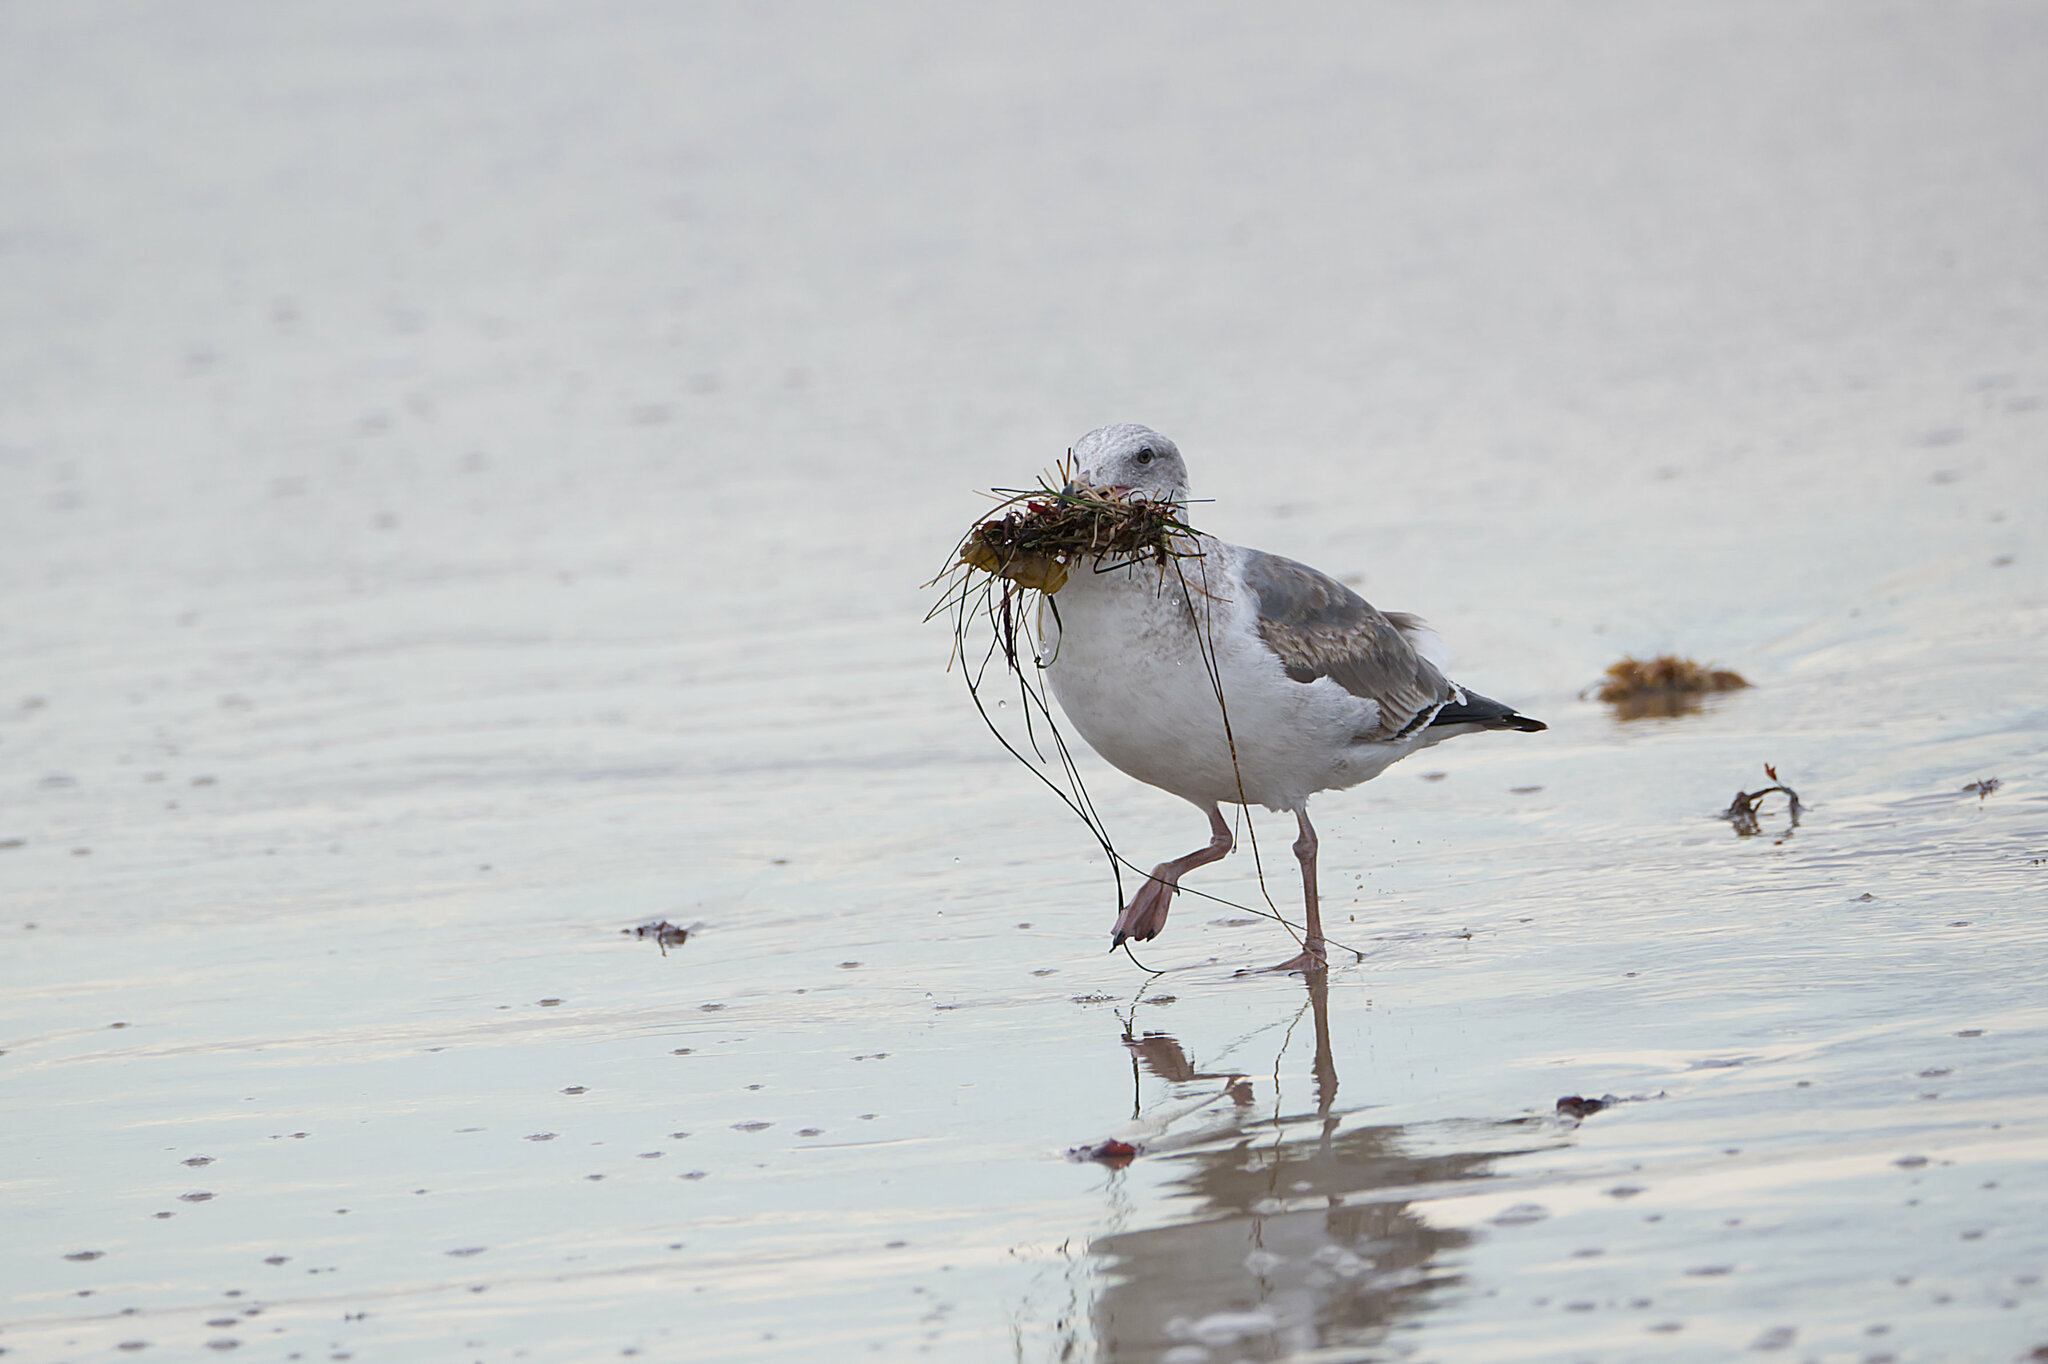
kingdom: Animalia
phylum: Chordata
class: Aves
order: Charadriiformes
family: Laridae
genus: Larus
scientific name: Larus occidentalis
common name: Western gull
